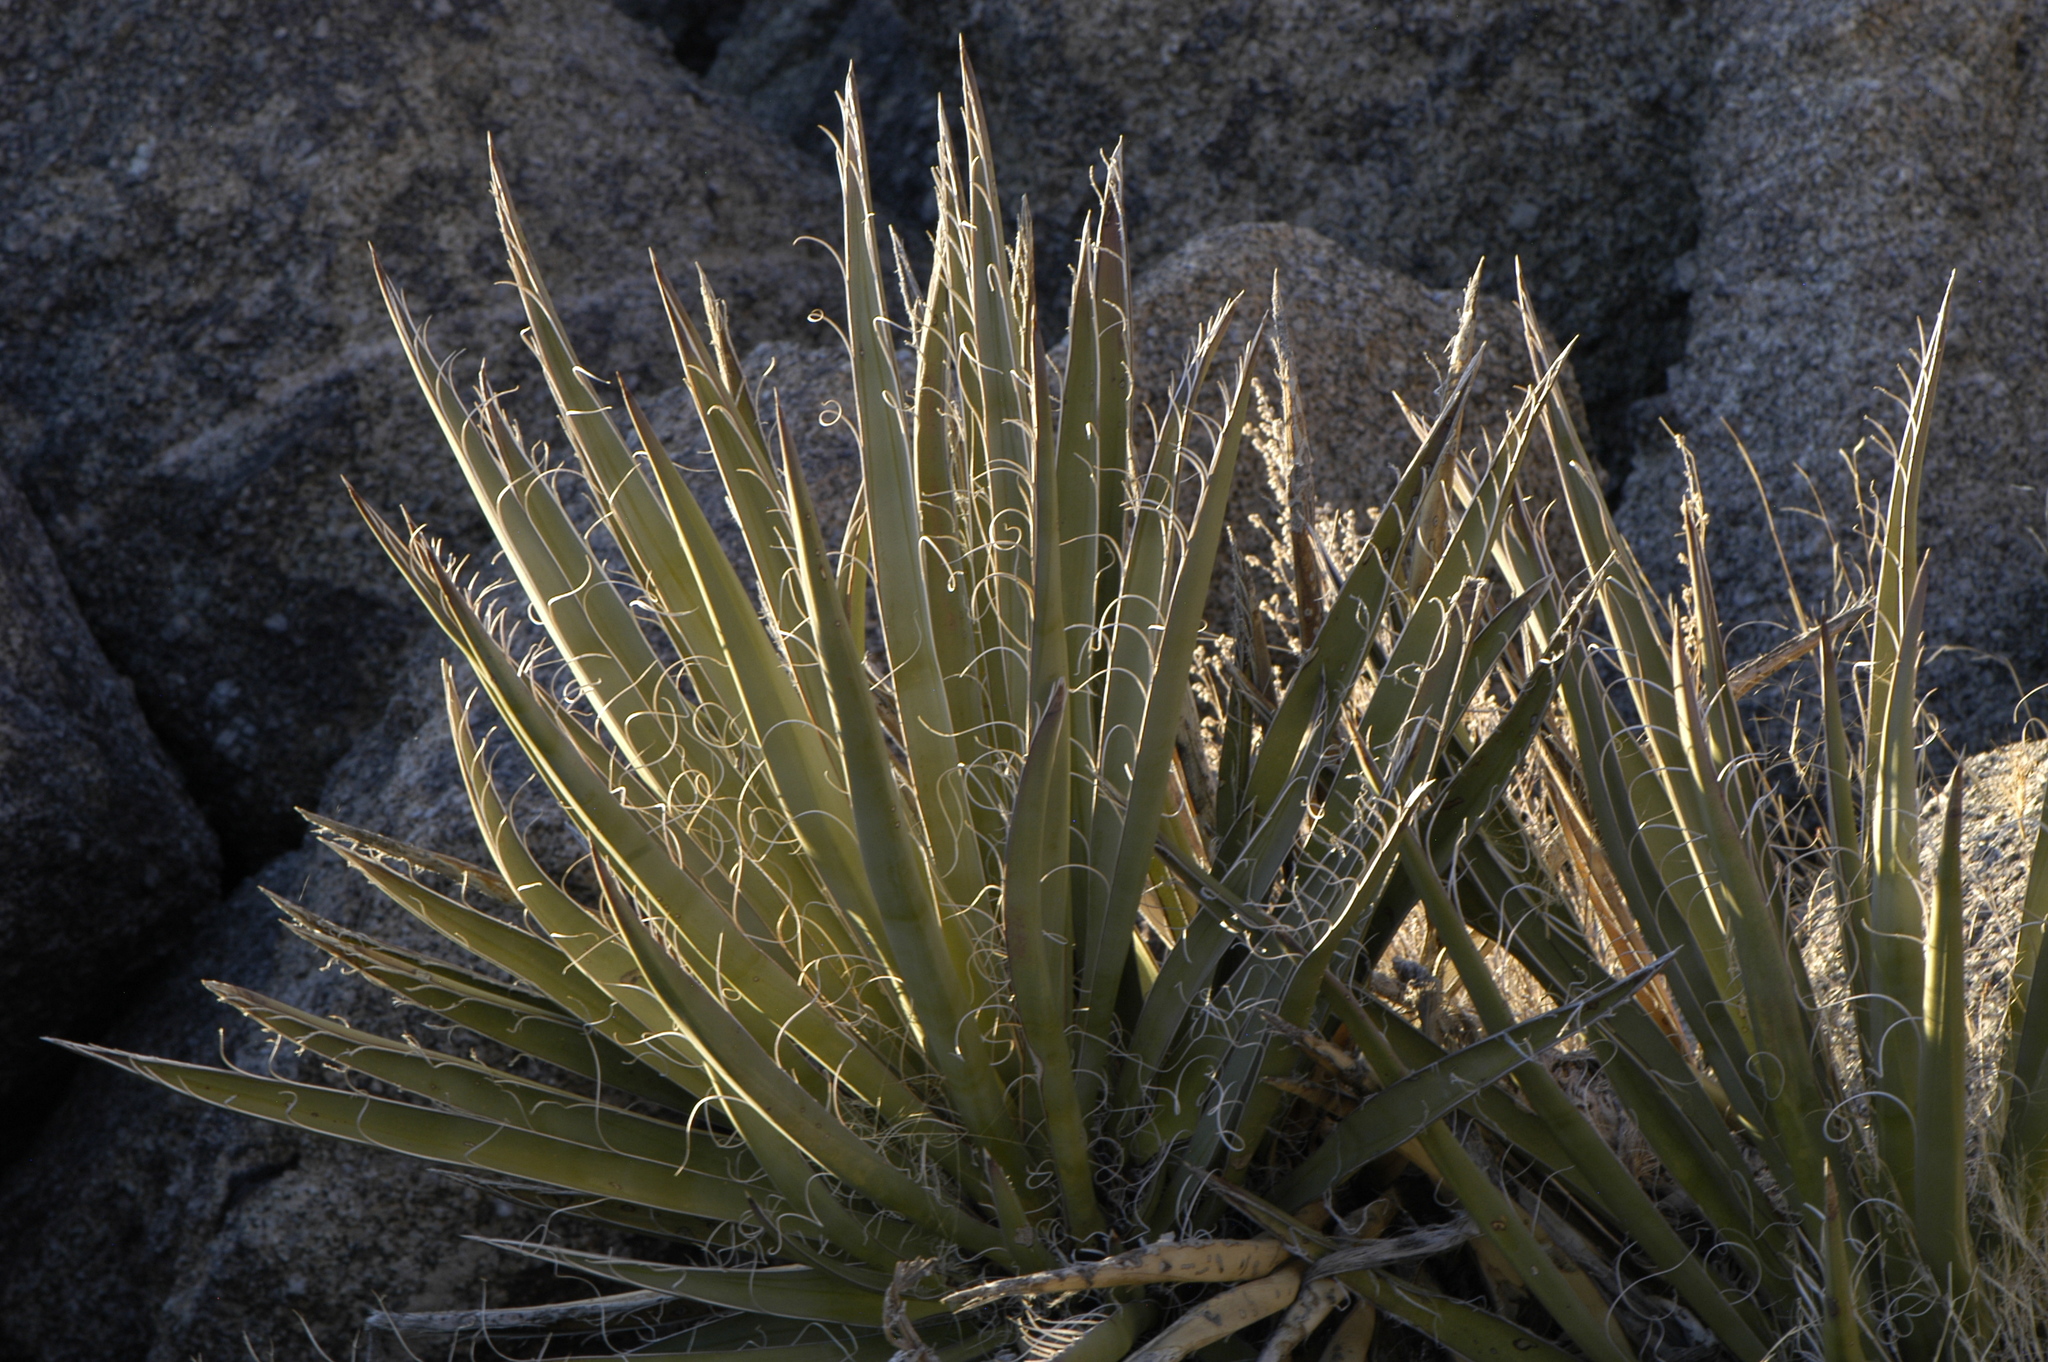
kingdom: Plantae
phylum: Tracheophyta
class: Liliopsida
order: Asparagales
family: Asparagaceae
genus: Yucca
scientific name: Yucca baccata
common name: Banana yucca
